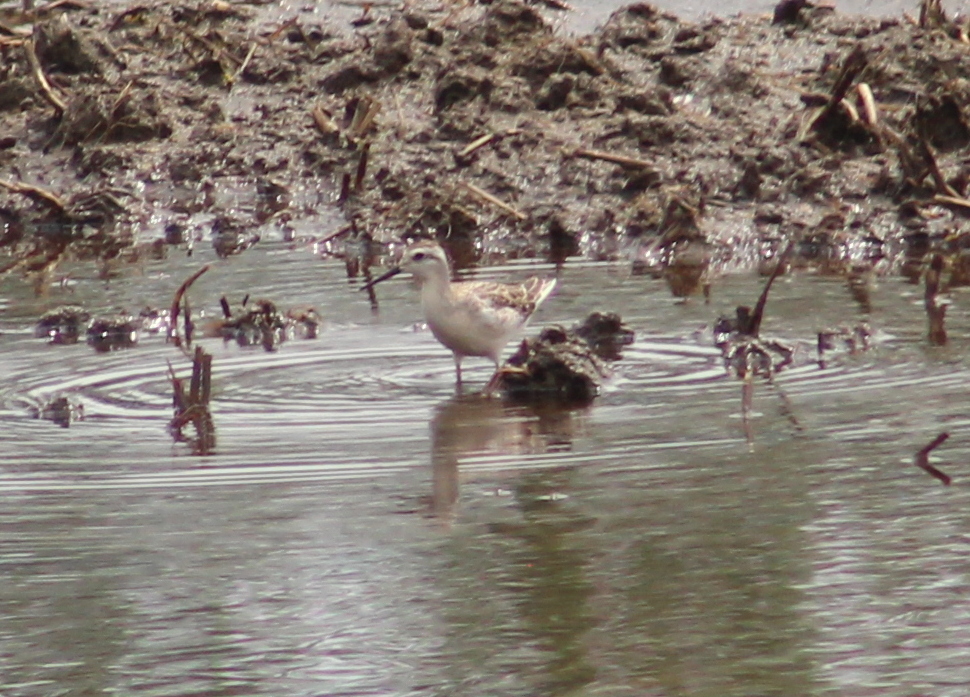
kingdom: Animalia
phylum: Chordata
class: Aves
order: Charadriiformes
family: Scolopacidae
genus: Phalaropus
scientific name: Phalaropus tricolor
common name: Wilson's phalarope
